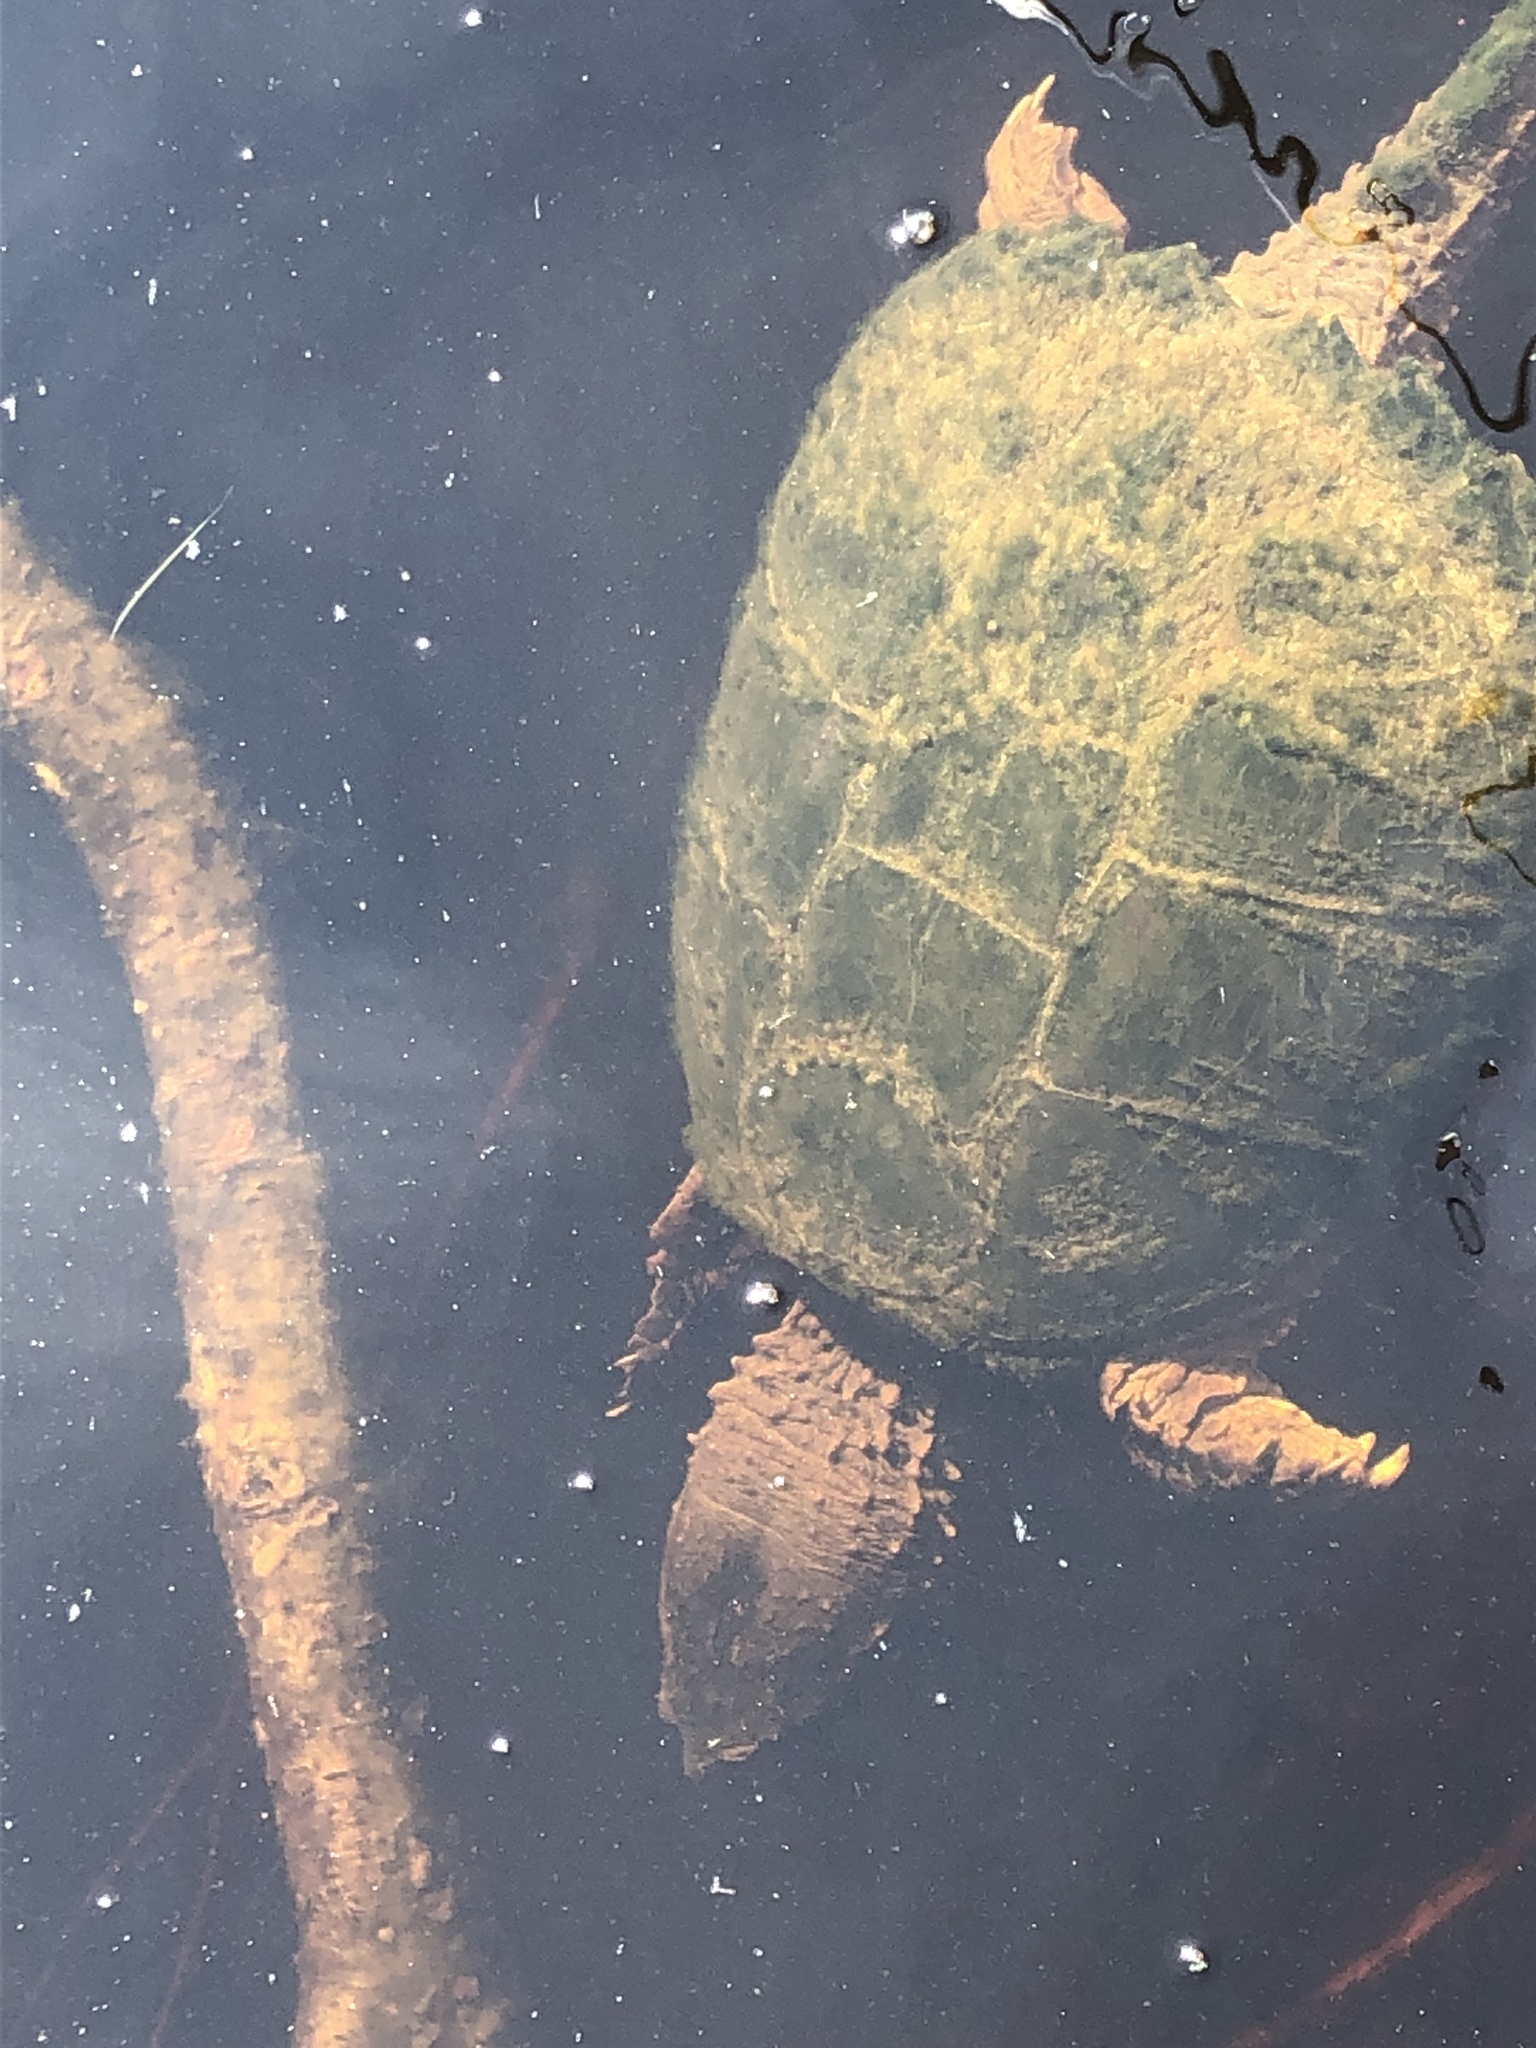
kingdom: Animalia
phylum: Chordata
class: Testudines
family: Chelydridae
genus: Chelydra
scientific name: Chelydra serpentina
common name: Common snapping turtle
